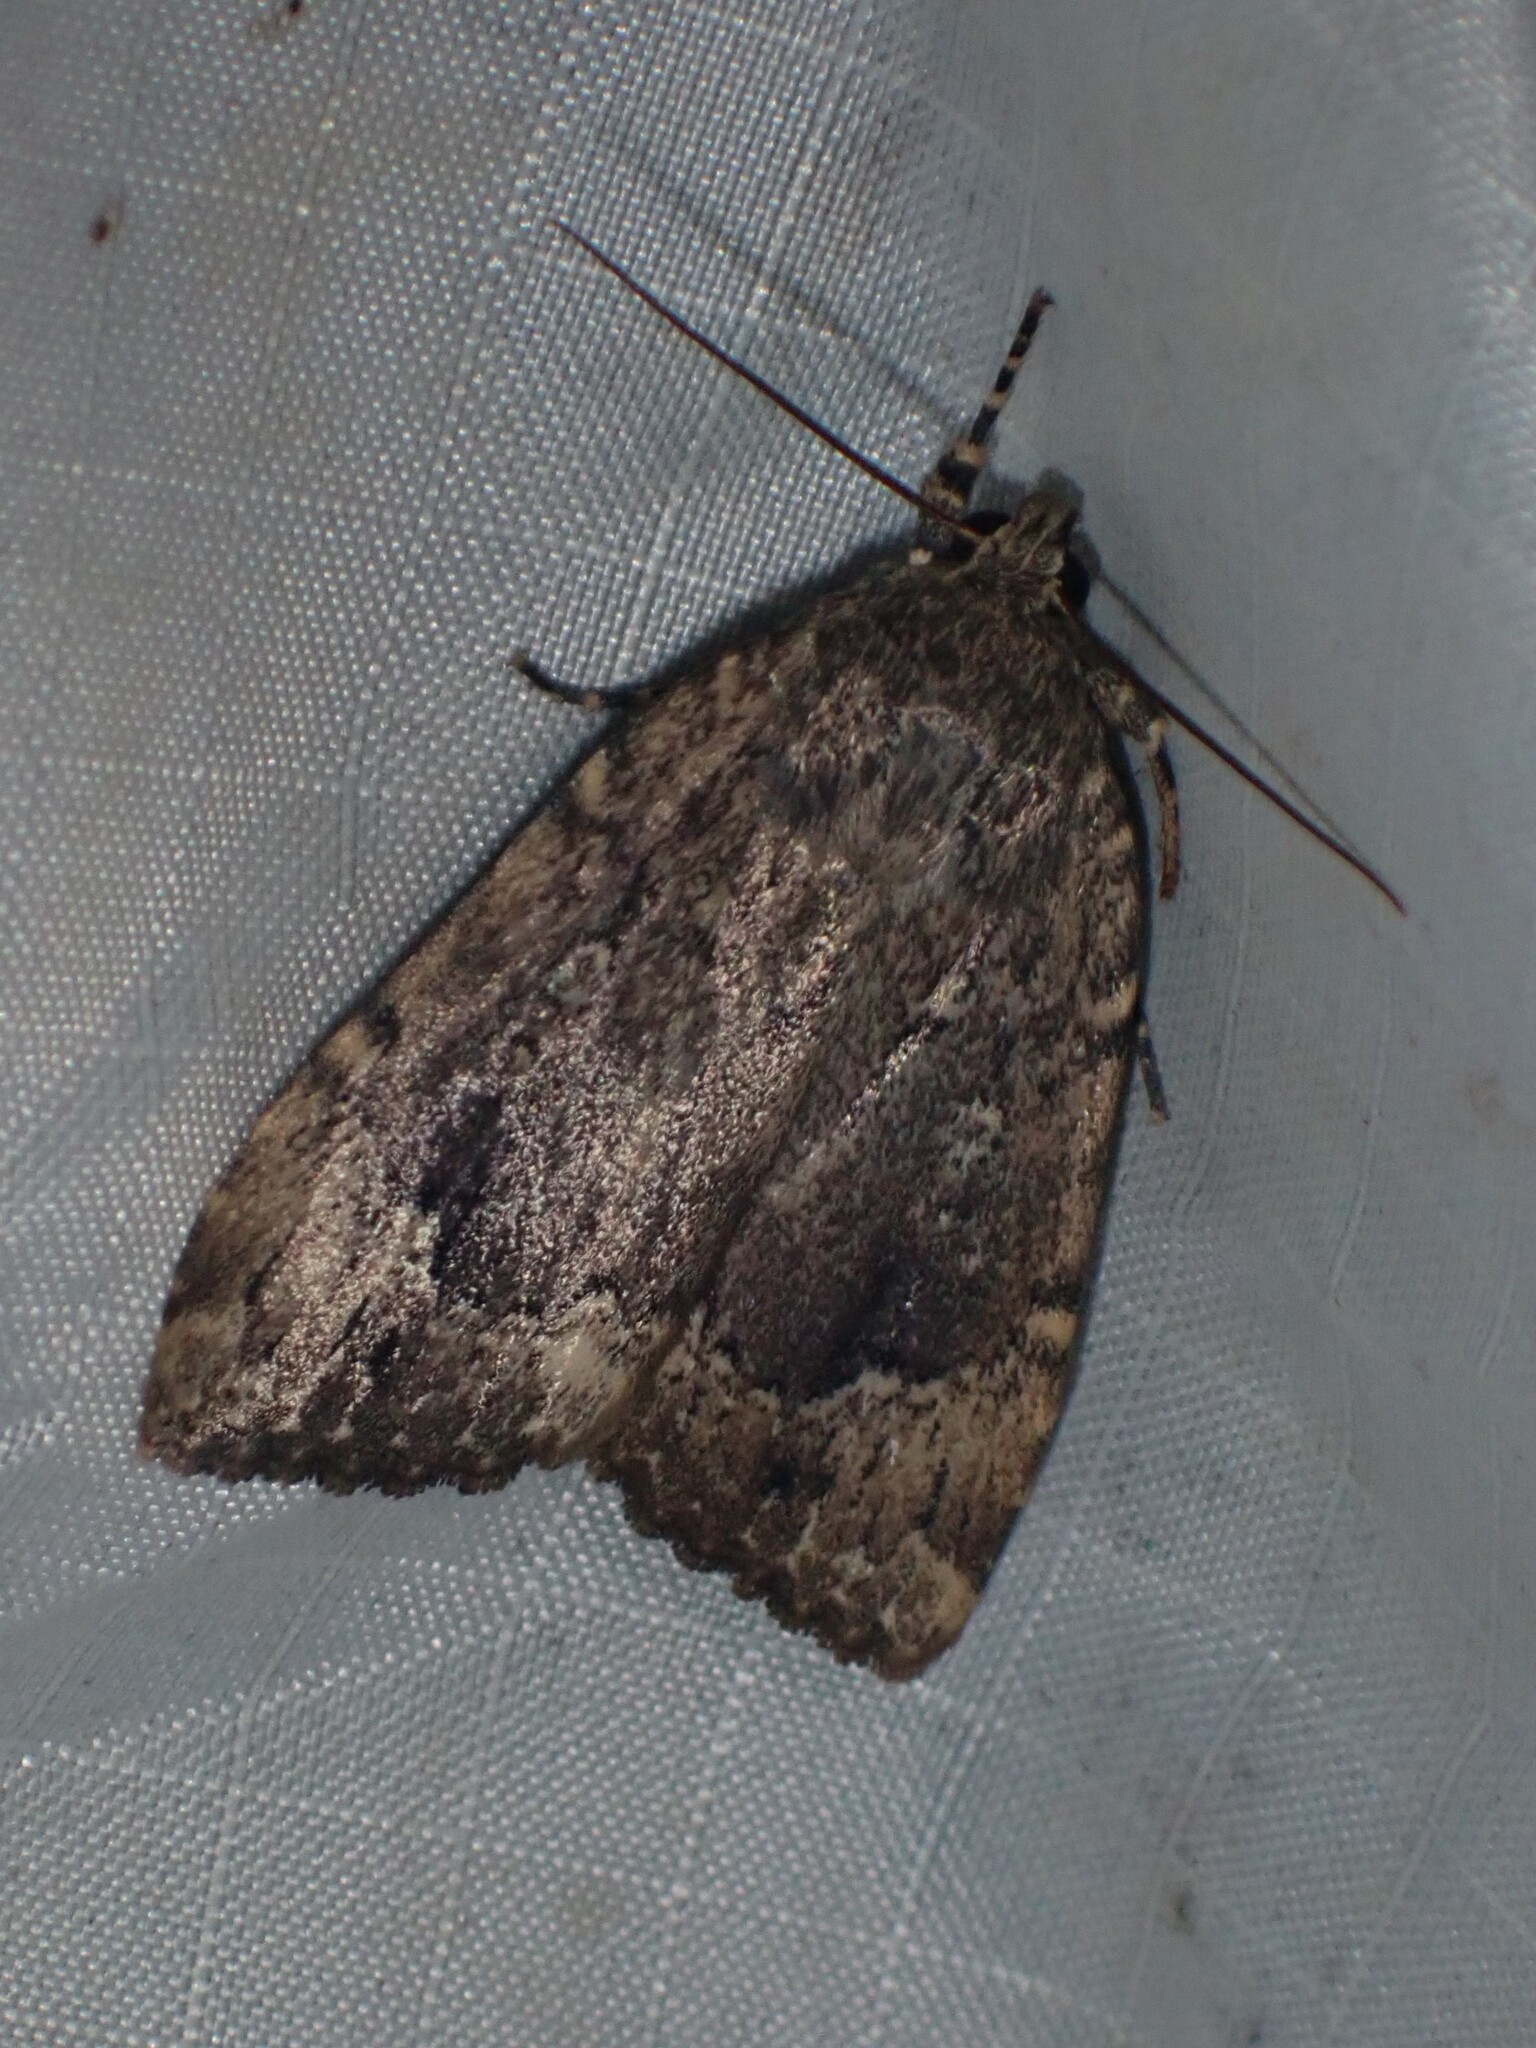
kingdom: Animalia
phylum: Arthropoda
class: Insecta
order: Lepidoptera
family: Noctuidae
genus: Amphipyra
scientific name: Amphipyra pyramidoides
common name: American copper underwing
